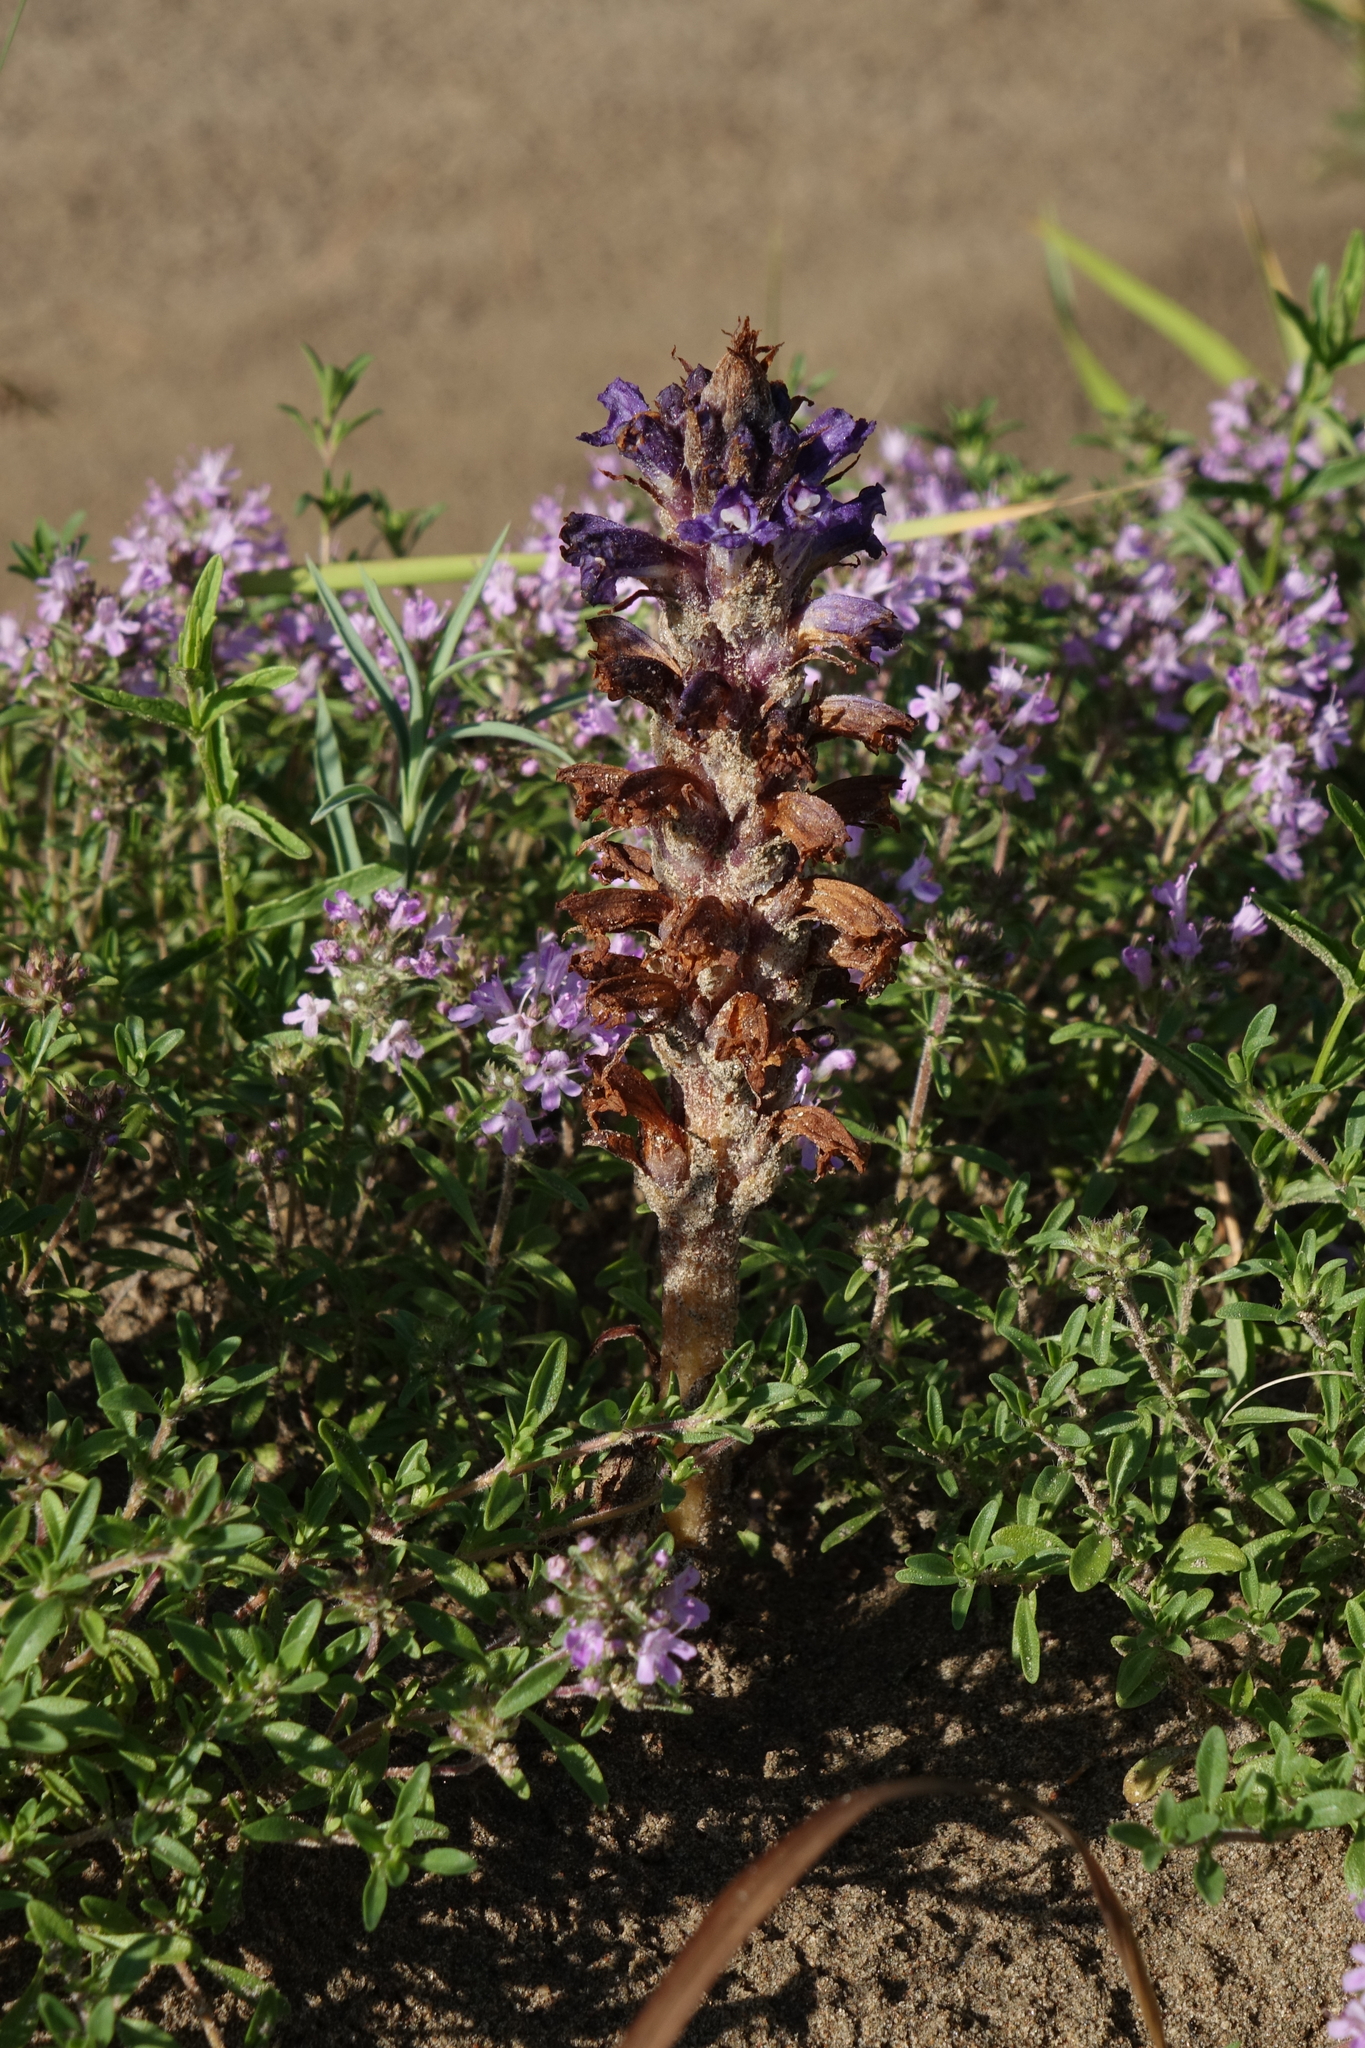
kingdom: Plantae
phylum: Tracheophyta
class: Magnoliopsida
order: Lamiales
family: Orobanchaceae
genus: Orobanche
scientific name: Orobanche coerulescens
